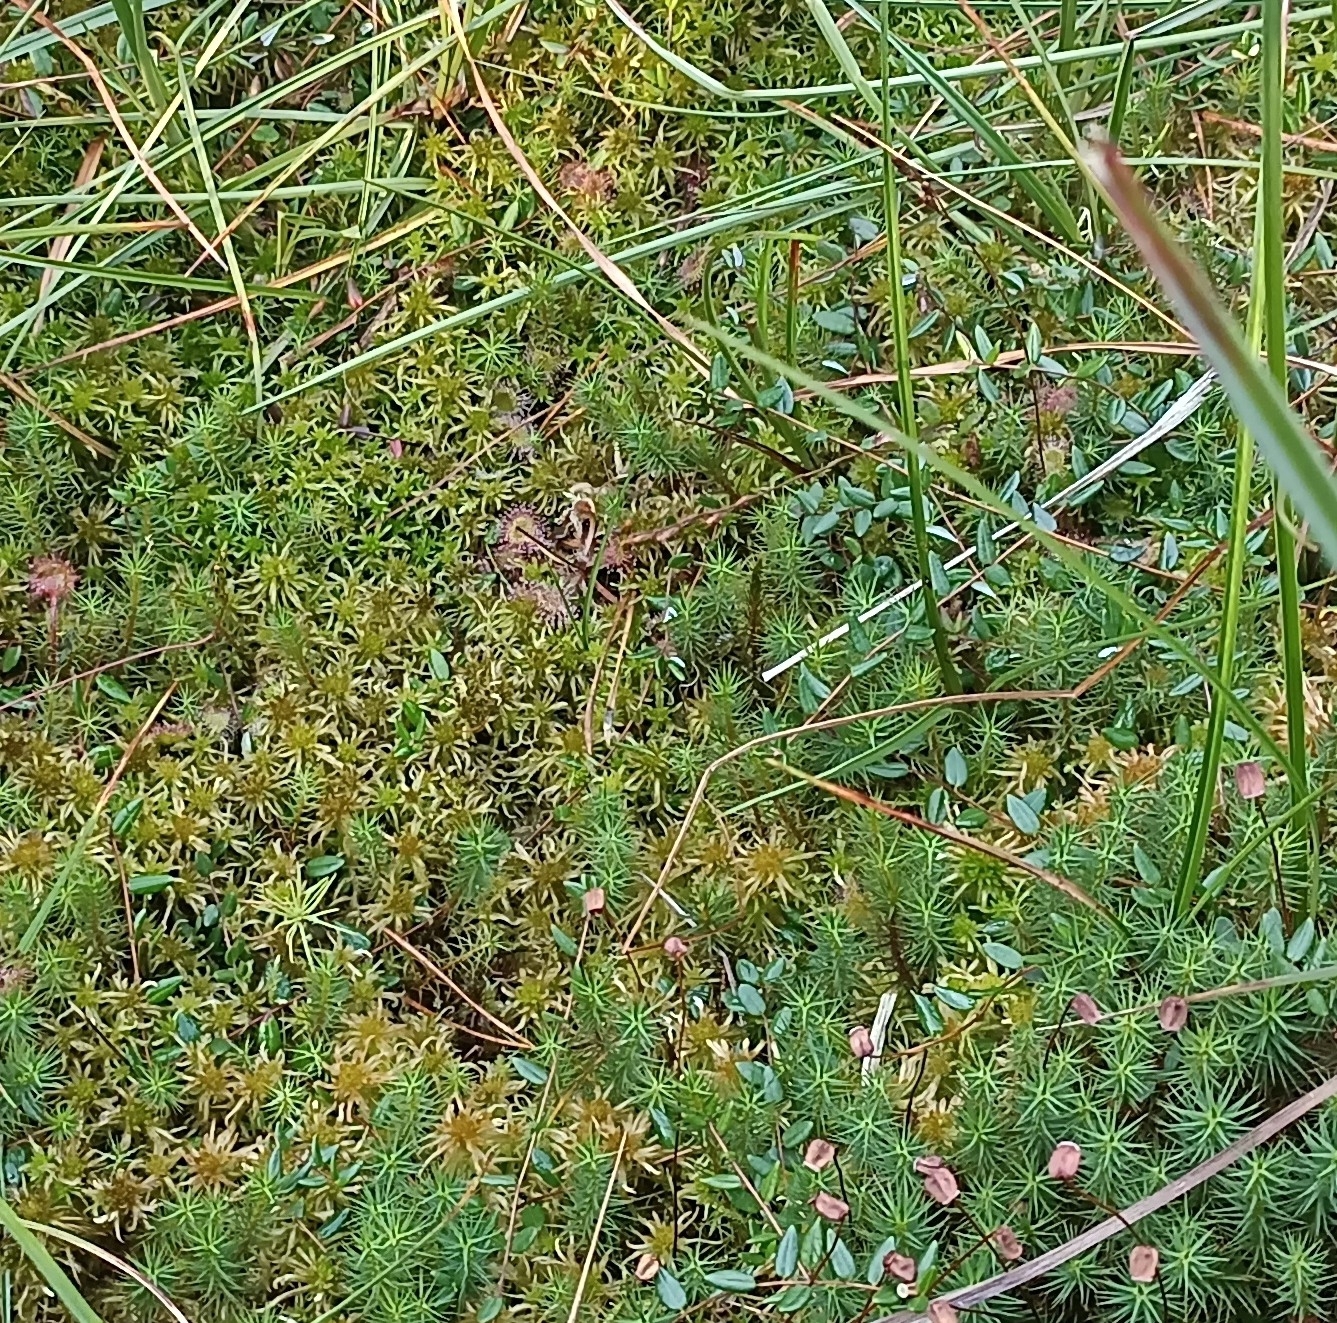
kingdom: Plantae
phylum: Tracheophyta
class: Magnoliopsida
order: Caryophyllales
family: Droseraceae
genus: Drosera
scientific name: Drosera rotundifolia
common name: Round-leaved sundew
